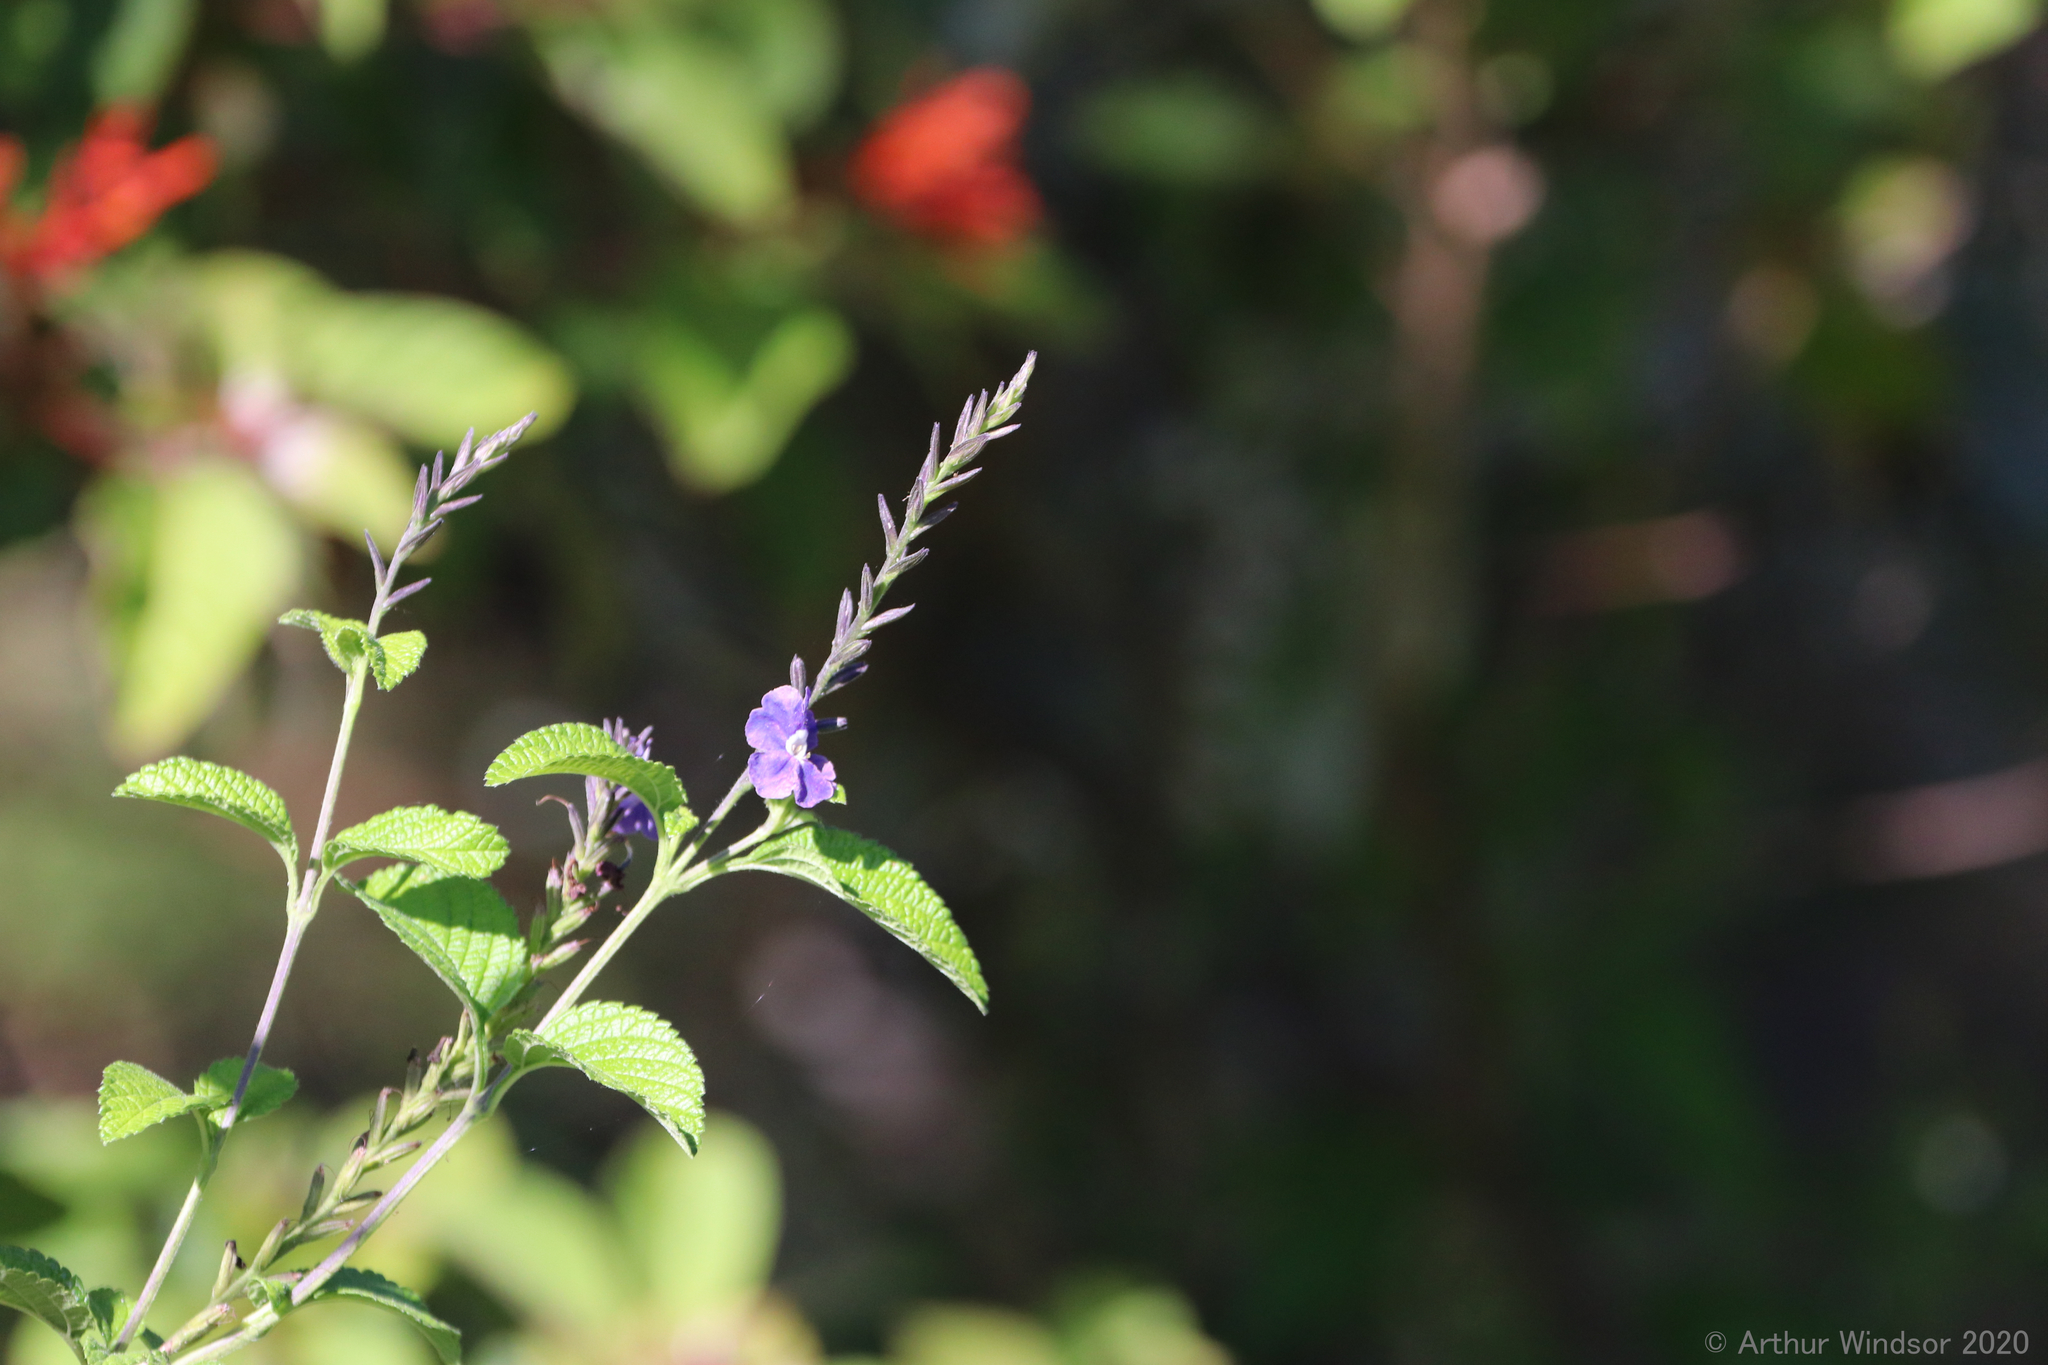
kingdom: Plantae
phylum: Tracheophyta
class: Magnoliopsida
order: Lamiales
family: Verbenaceae
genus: Stachytarpheta
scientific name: Stachytarpheta cayennensis
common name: Cayenne porterweed
